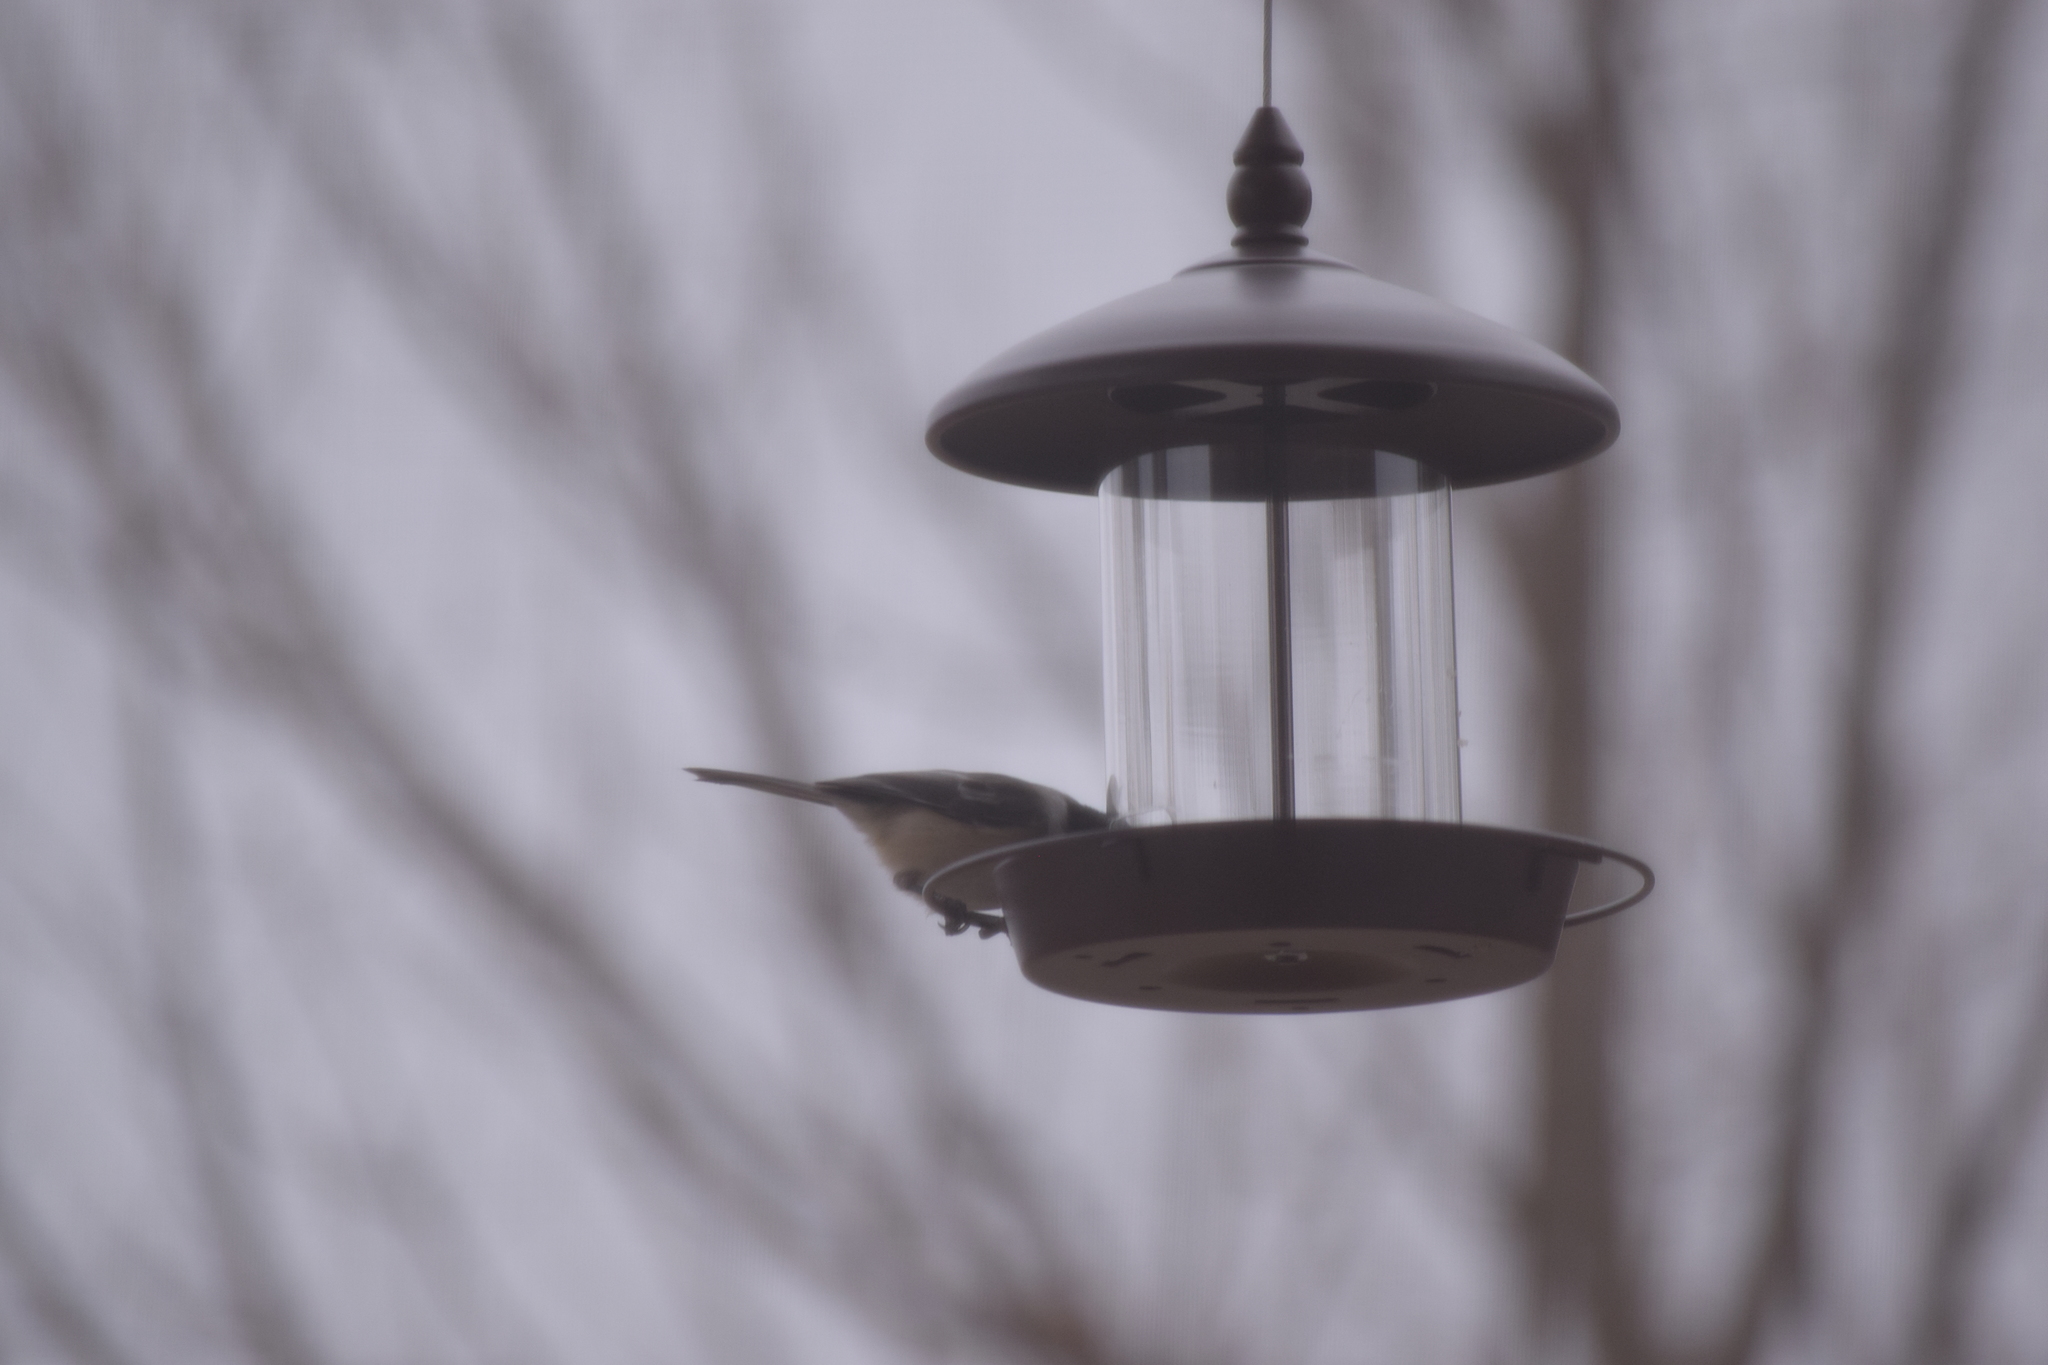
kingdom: Animalia
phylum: Chordata
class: Aves
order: Passeriformes
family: Paridae
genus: Poecile
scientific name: Poecile atricapillus
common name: Black-capped chickadee
